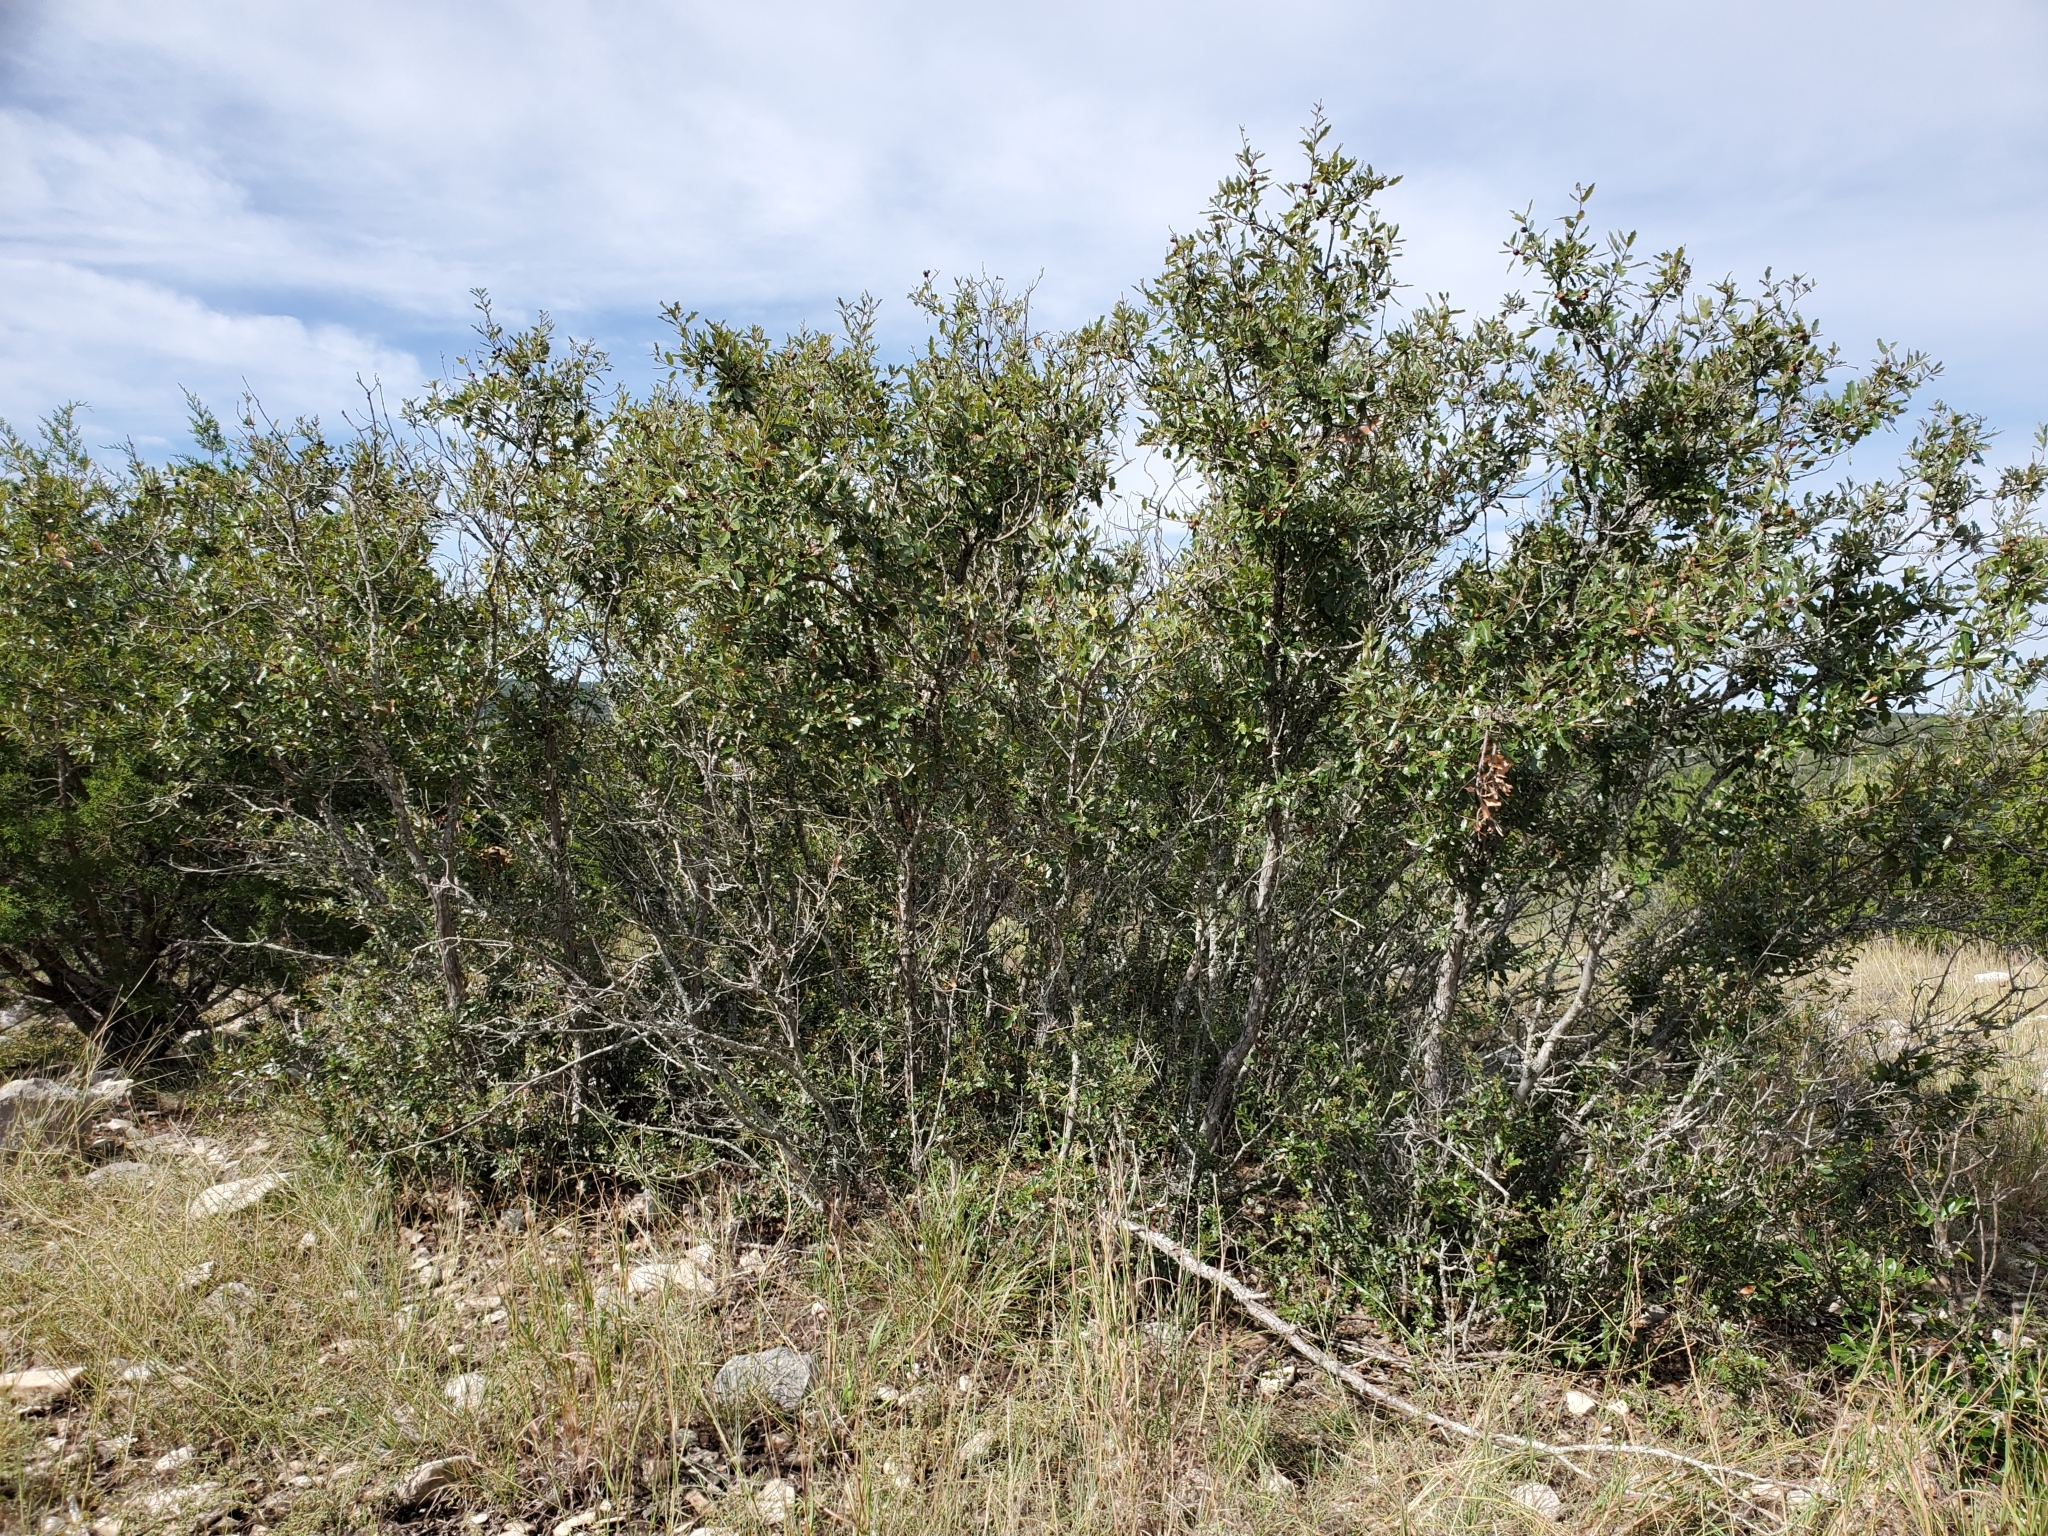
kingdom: Plantae
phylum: Tracheophyta
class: Magnoliopsida
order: Fagales
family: Fagaceae
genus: Quercus
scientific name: Quercus vaseyana
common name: Sandpaper oak
